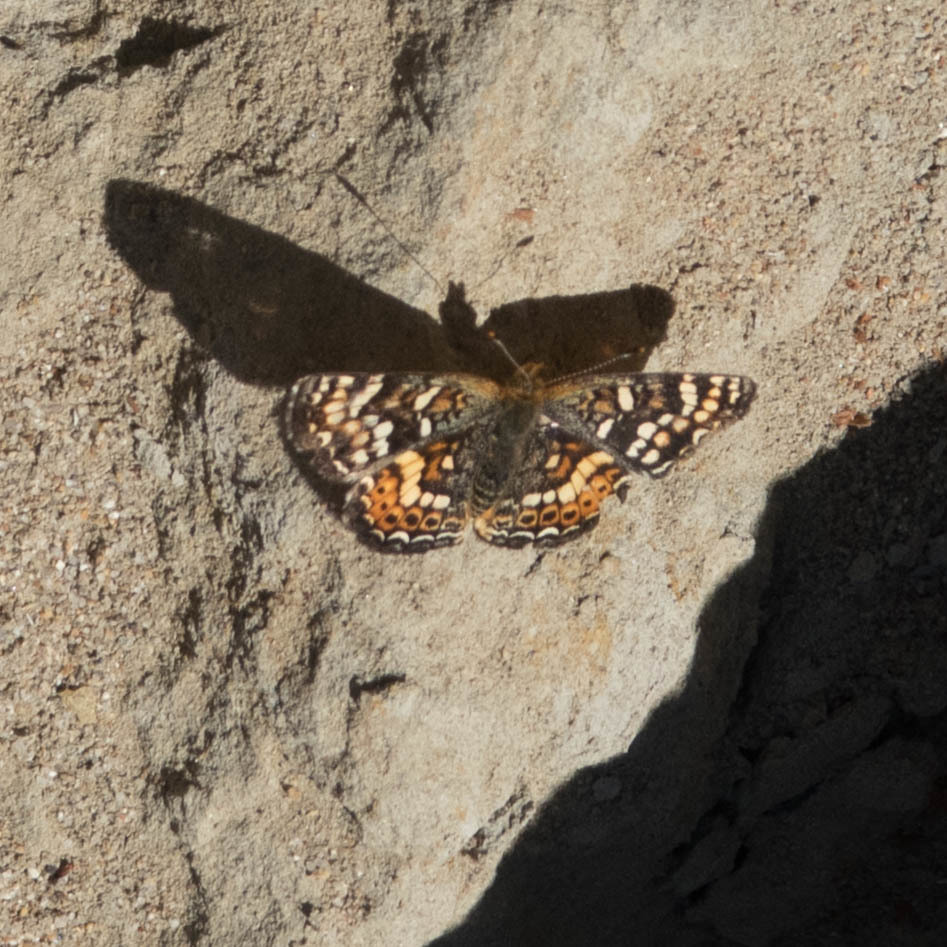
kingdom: Animalia
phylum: Arthropoda
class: Insecta
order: Lepidoptera
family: Nymphalidae
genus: Phyciodes
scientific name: Phyciodes tharos
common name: Pearl crescent
